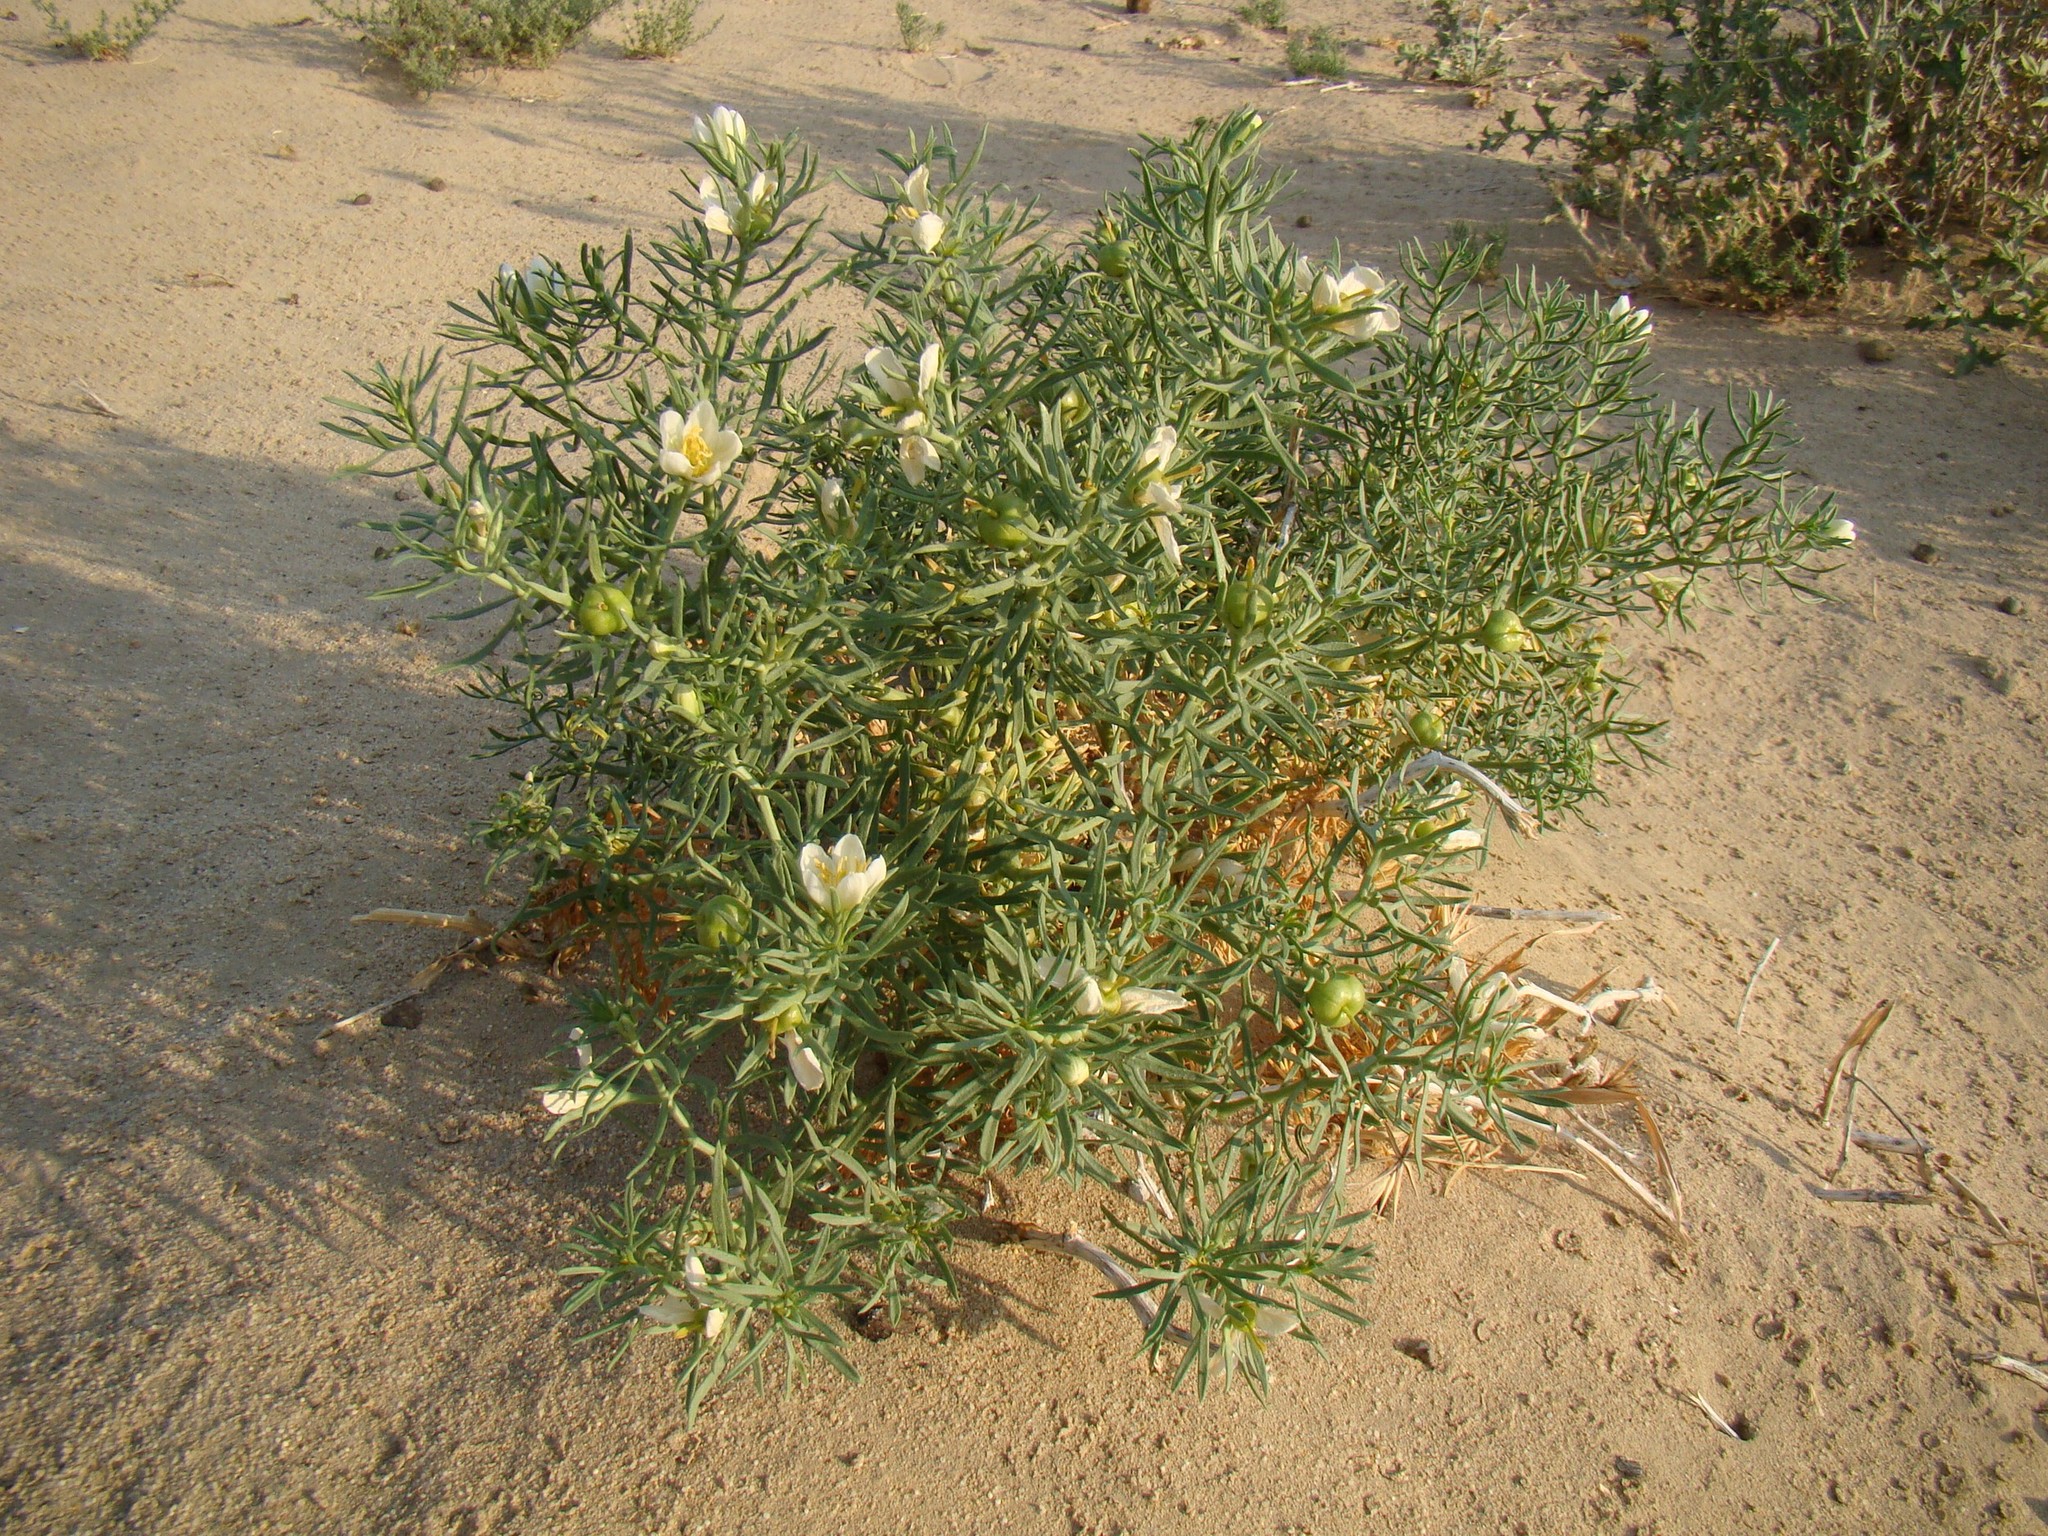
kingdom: Plantae
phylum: Tracheophyta
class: Magnoliopsida
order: Sapindales
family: Tetradiclidaceae
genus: Peganum
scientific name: Peganum harmala
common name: Harmal peganum
